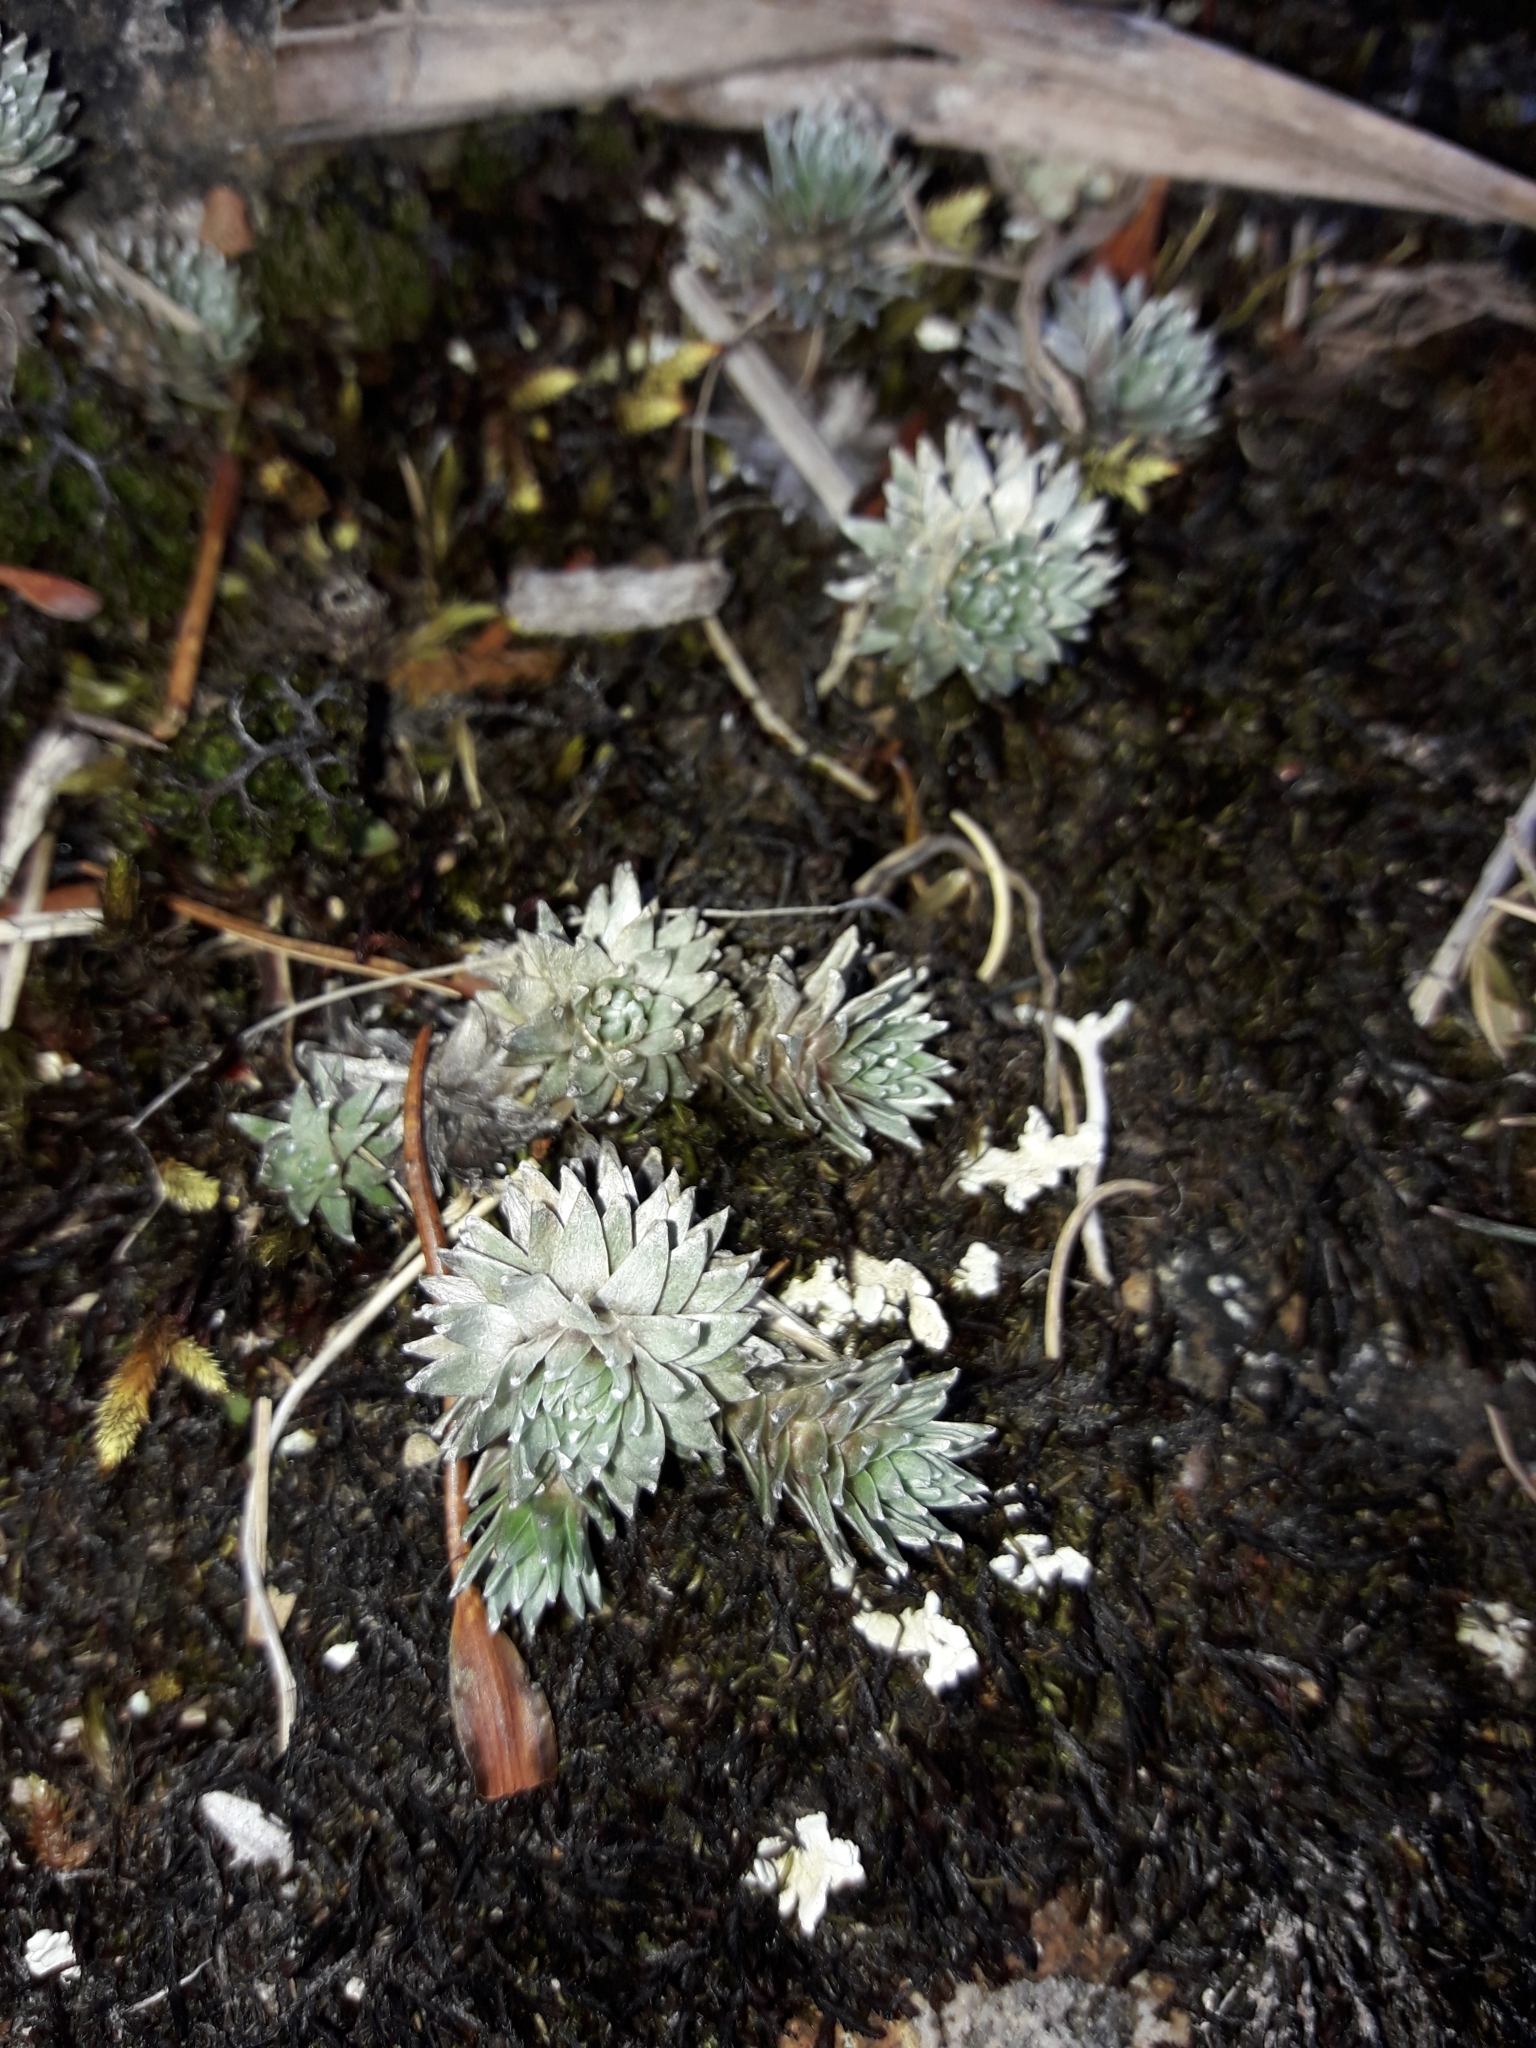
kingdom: Plantae
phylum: Tracheophyta
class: Magnoliopsida
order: Asterales
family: Asteraceae
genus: Raoulia
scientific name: Raoulia grandiflora
